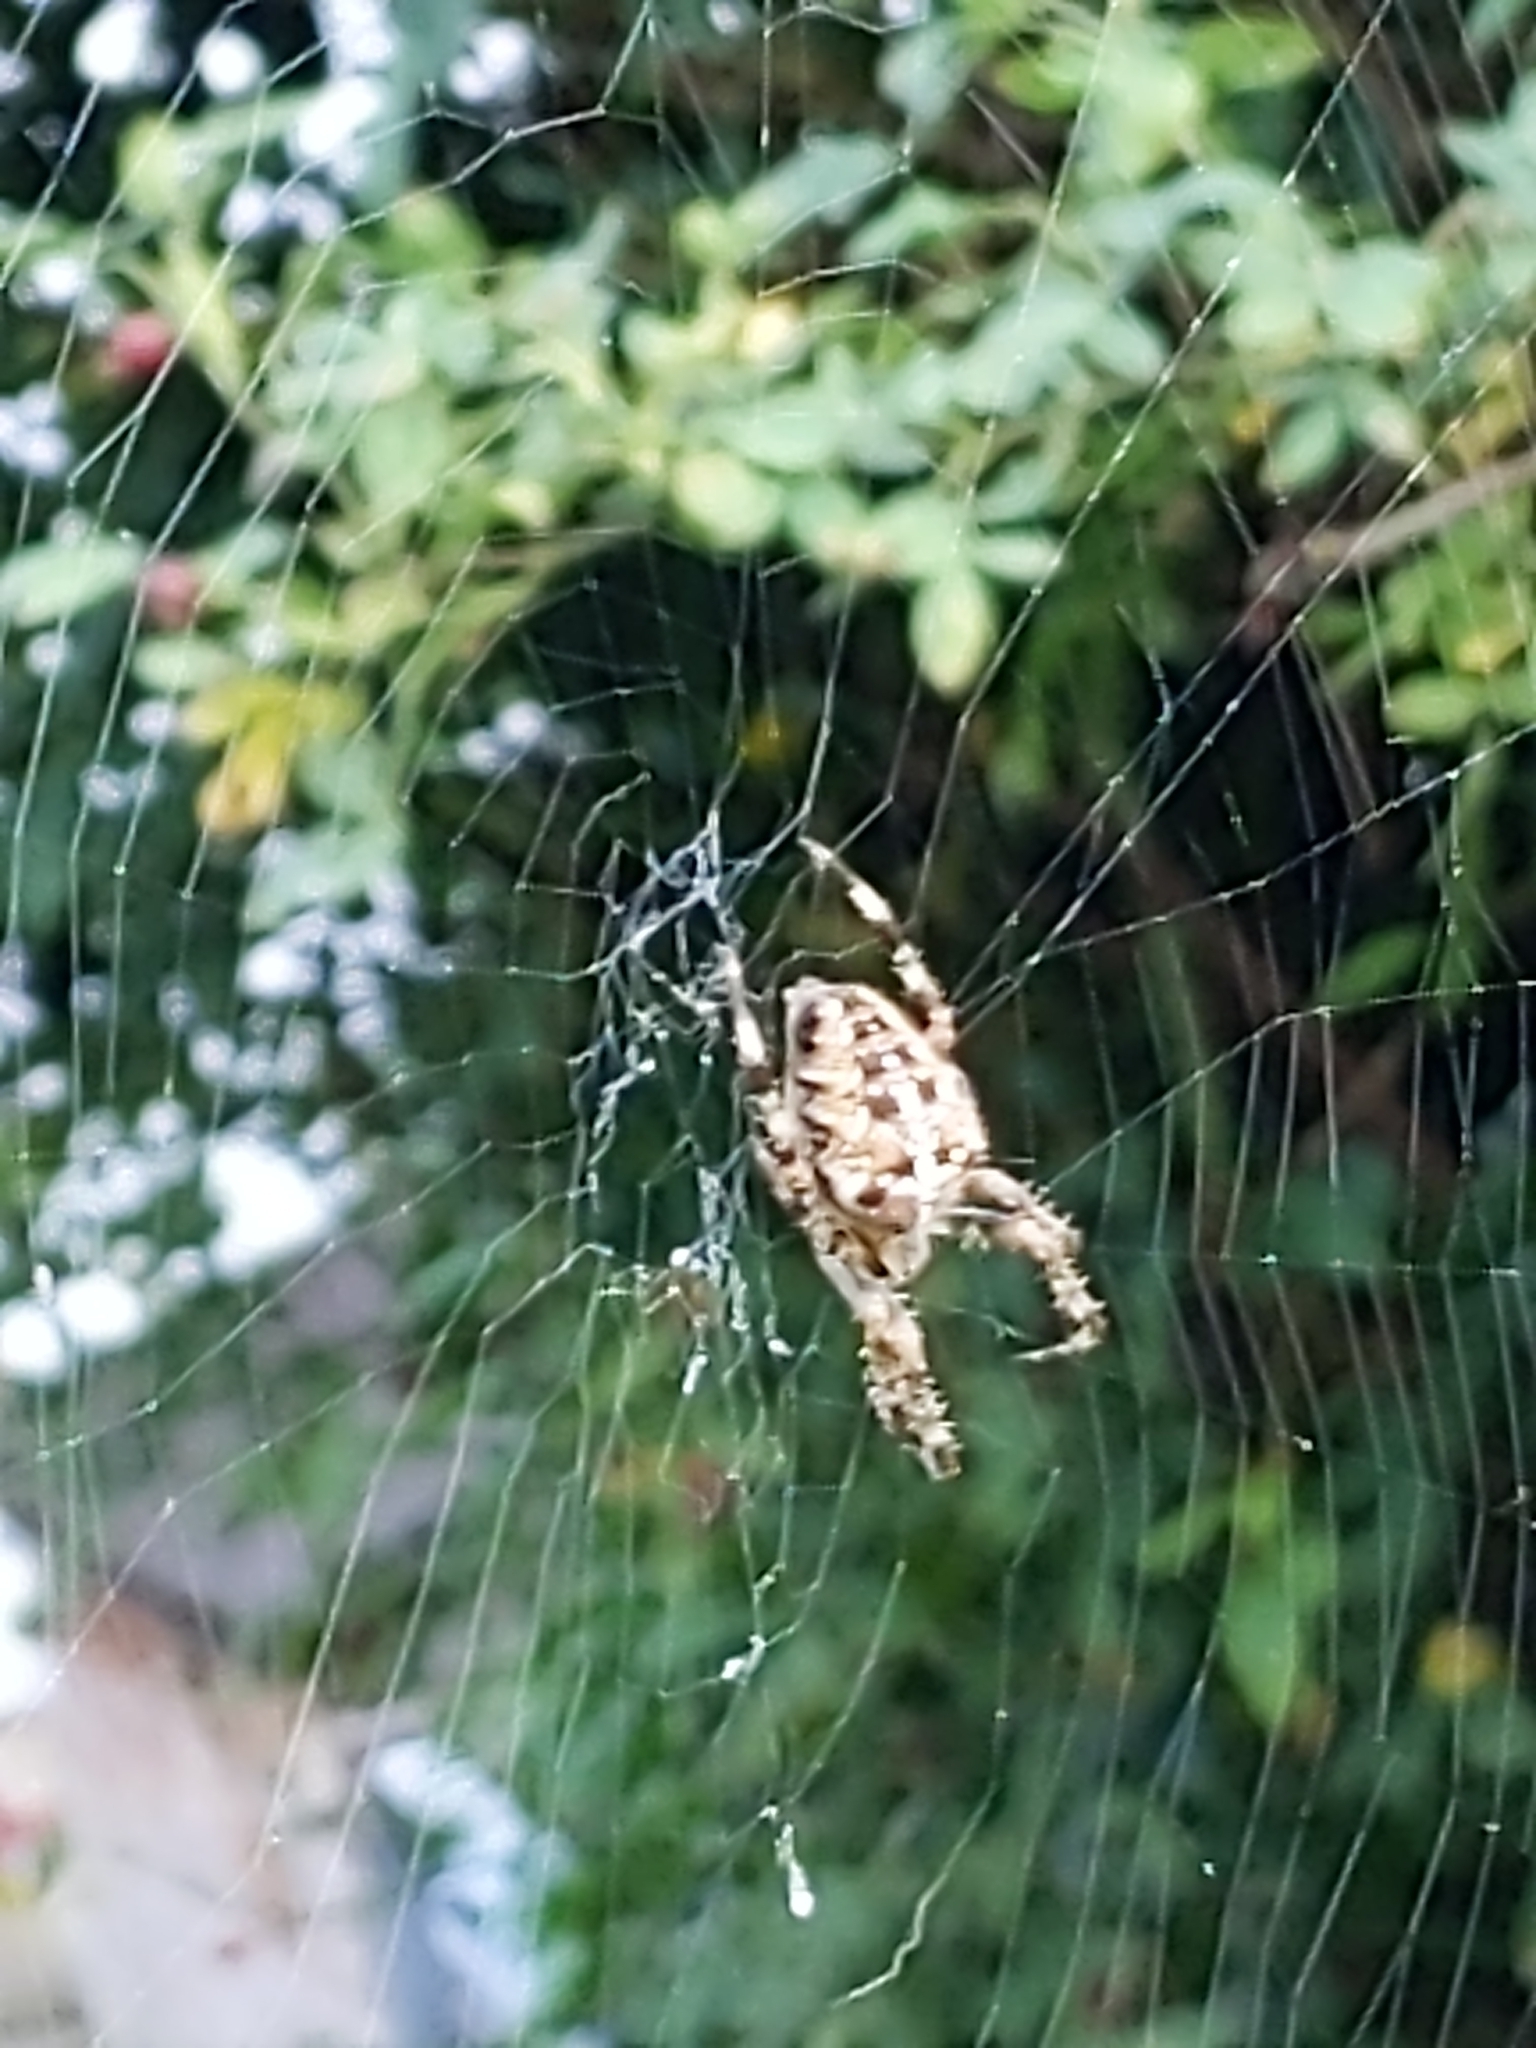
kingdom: Animalia
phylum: Arthropoda
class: Arachnida
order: Araneae
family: Araneidae
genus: Araneus
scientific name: Araneus diadematus
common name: Cross orbweaver
